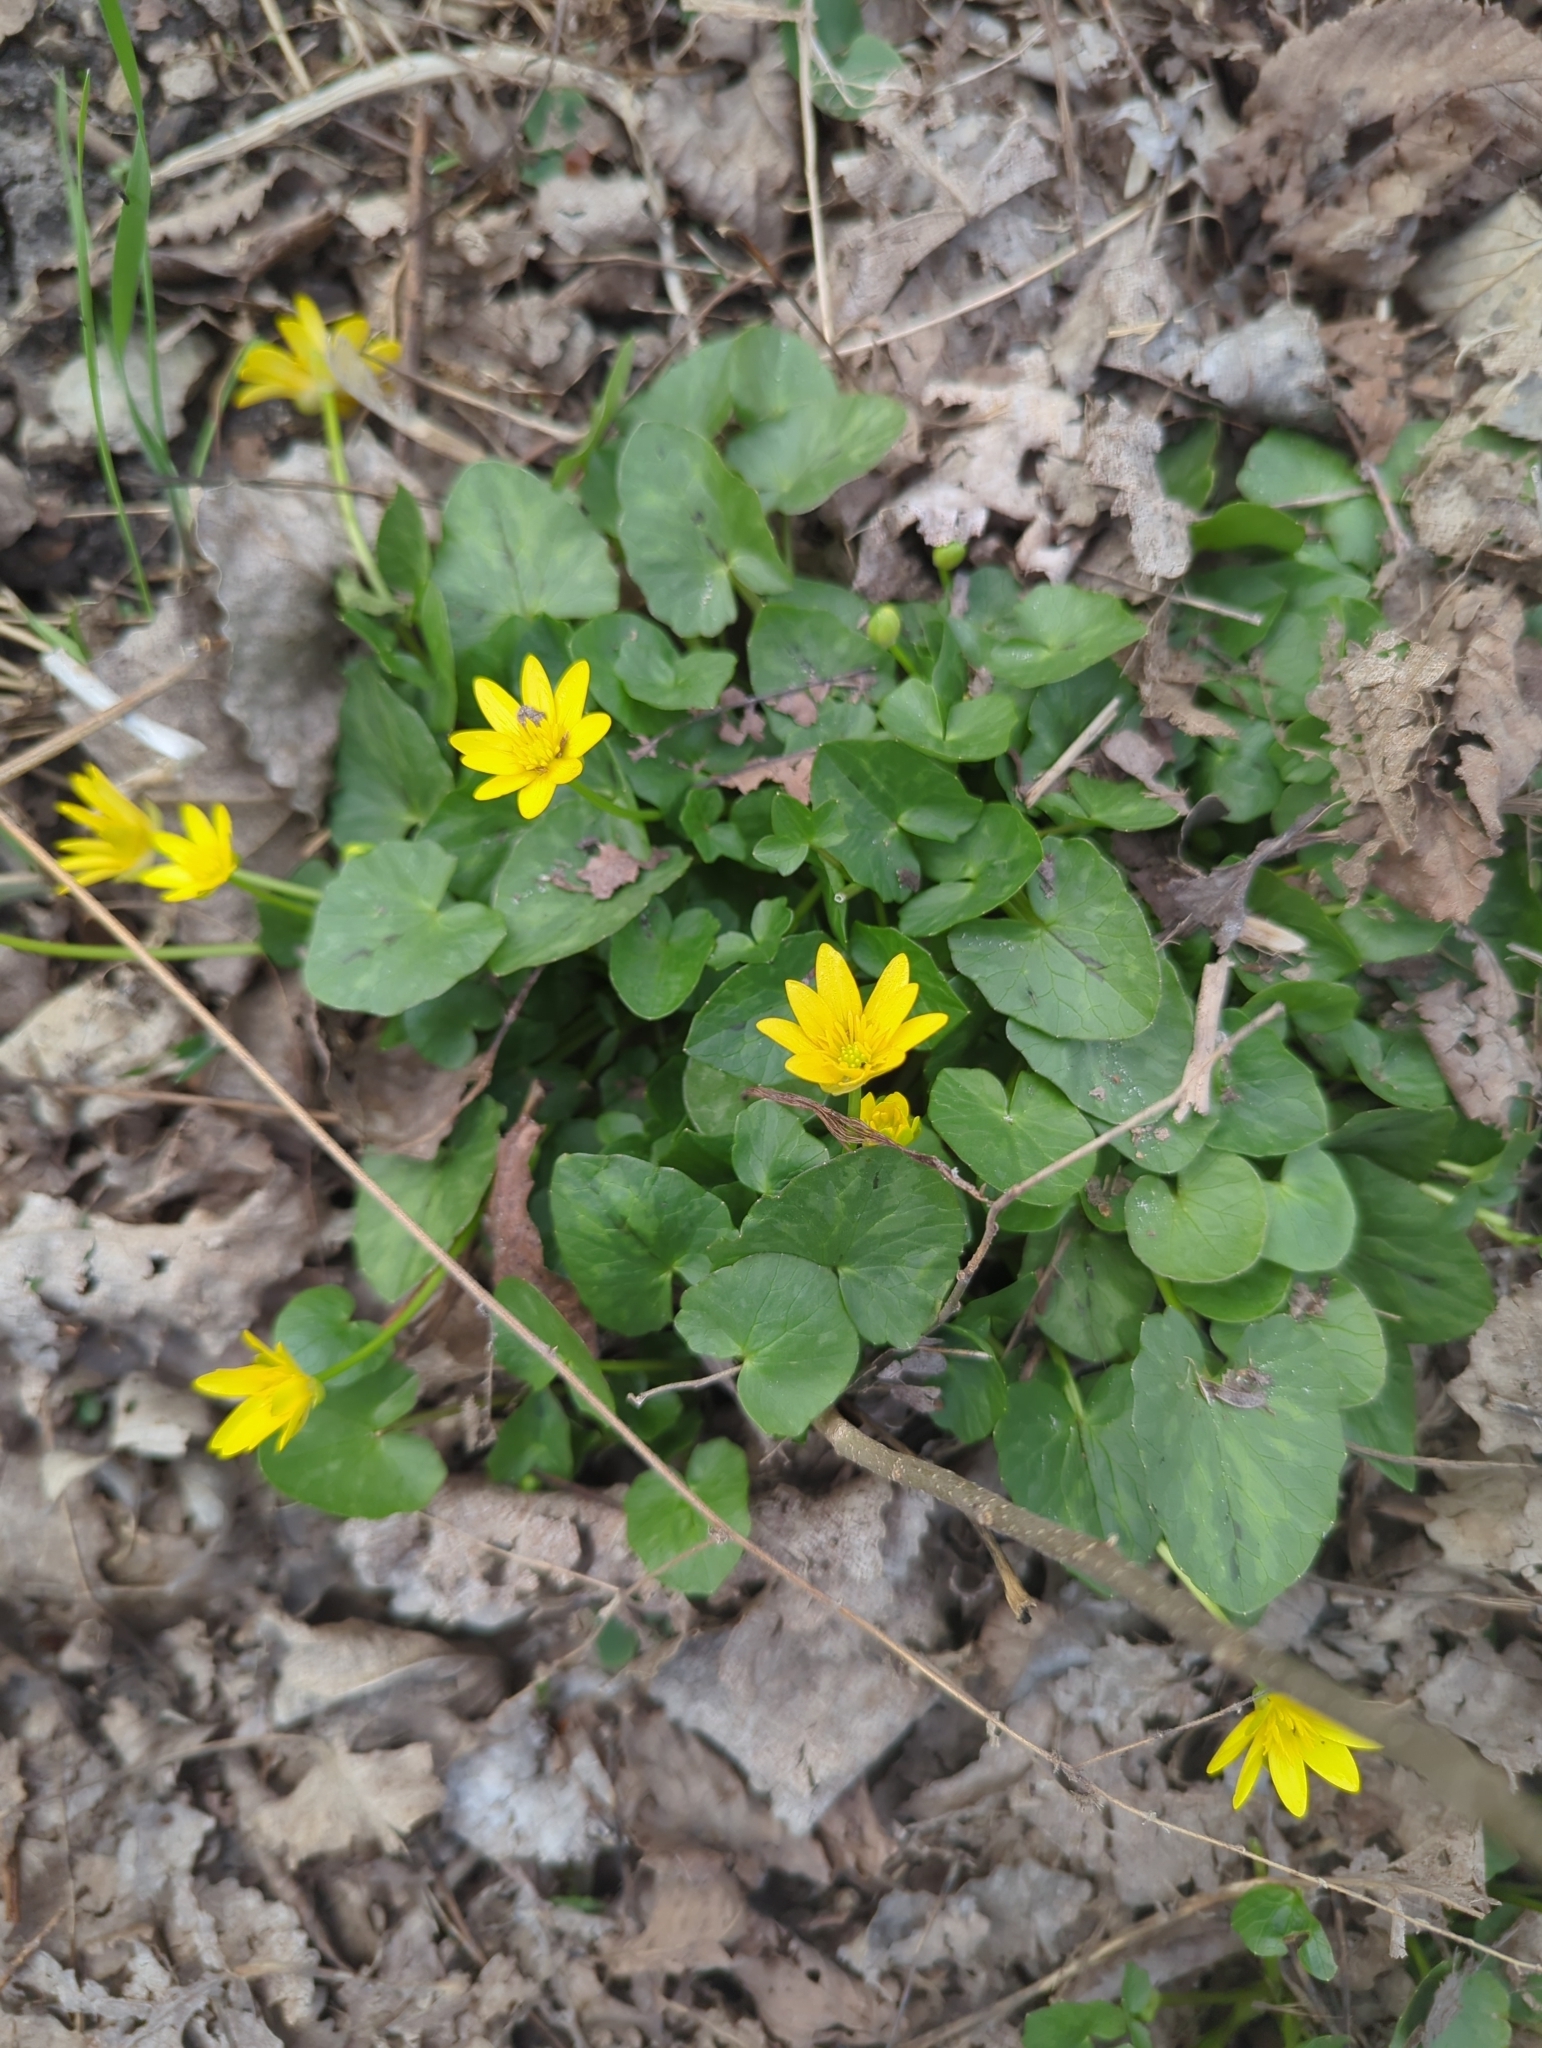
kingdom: Plantae
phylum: Tracheophyta
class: Magnoliopsida
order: Ranunculales
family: Ranunculaceae
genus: Ficaria
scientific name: Ficaria verna
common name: Lesser celandine
